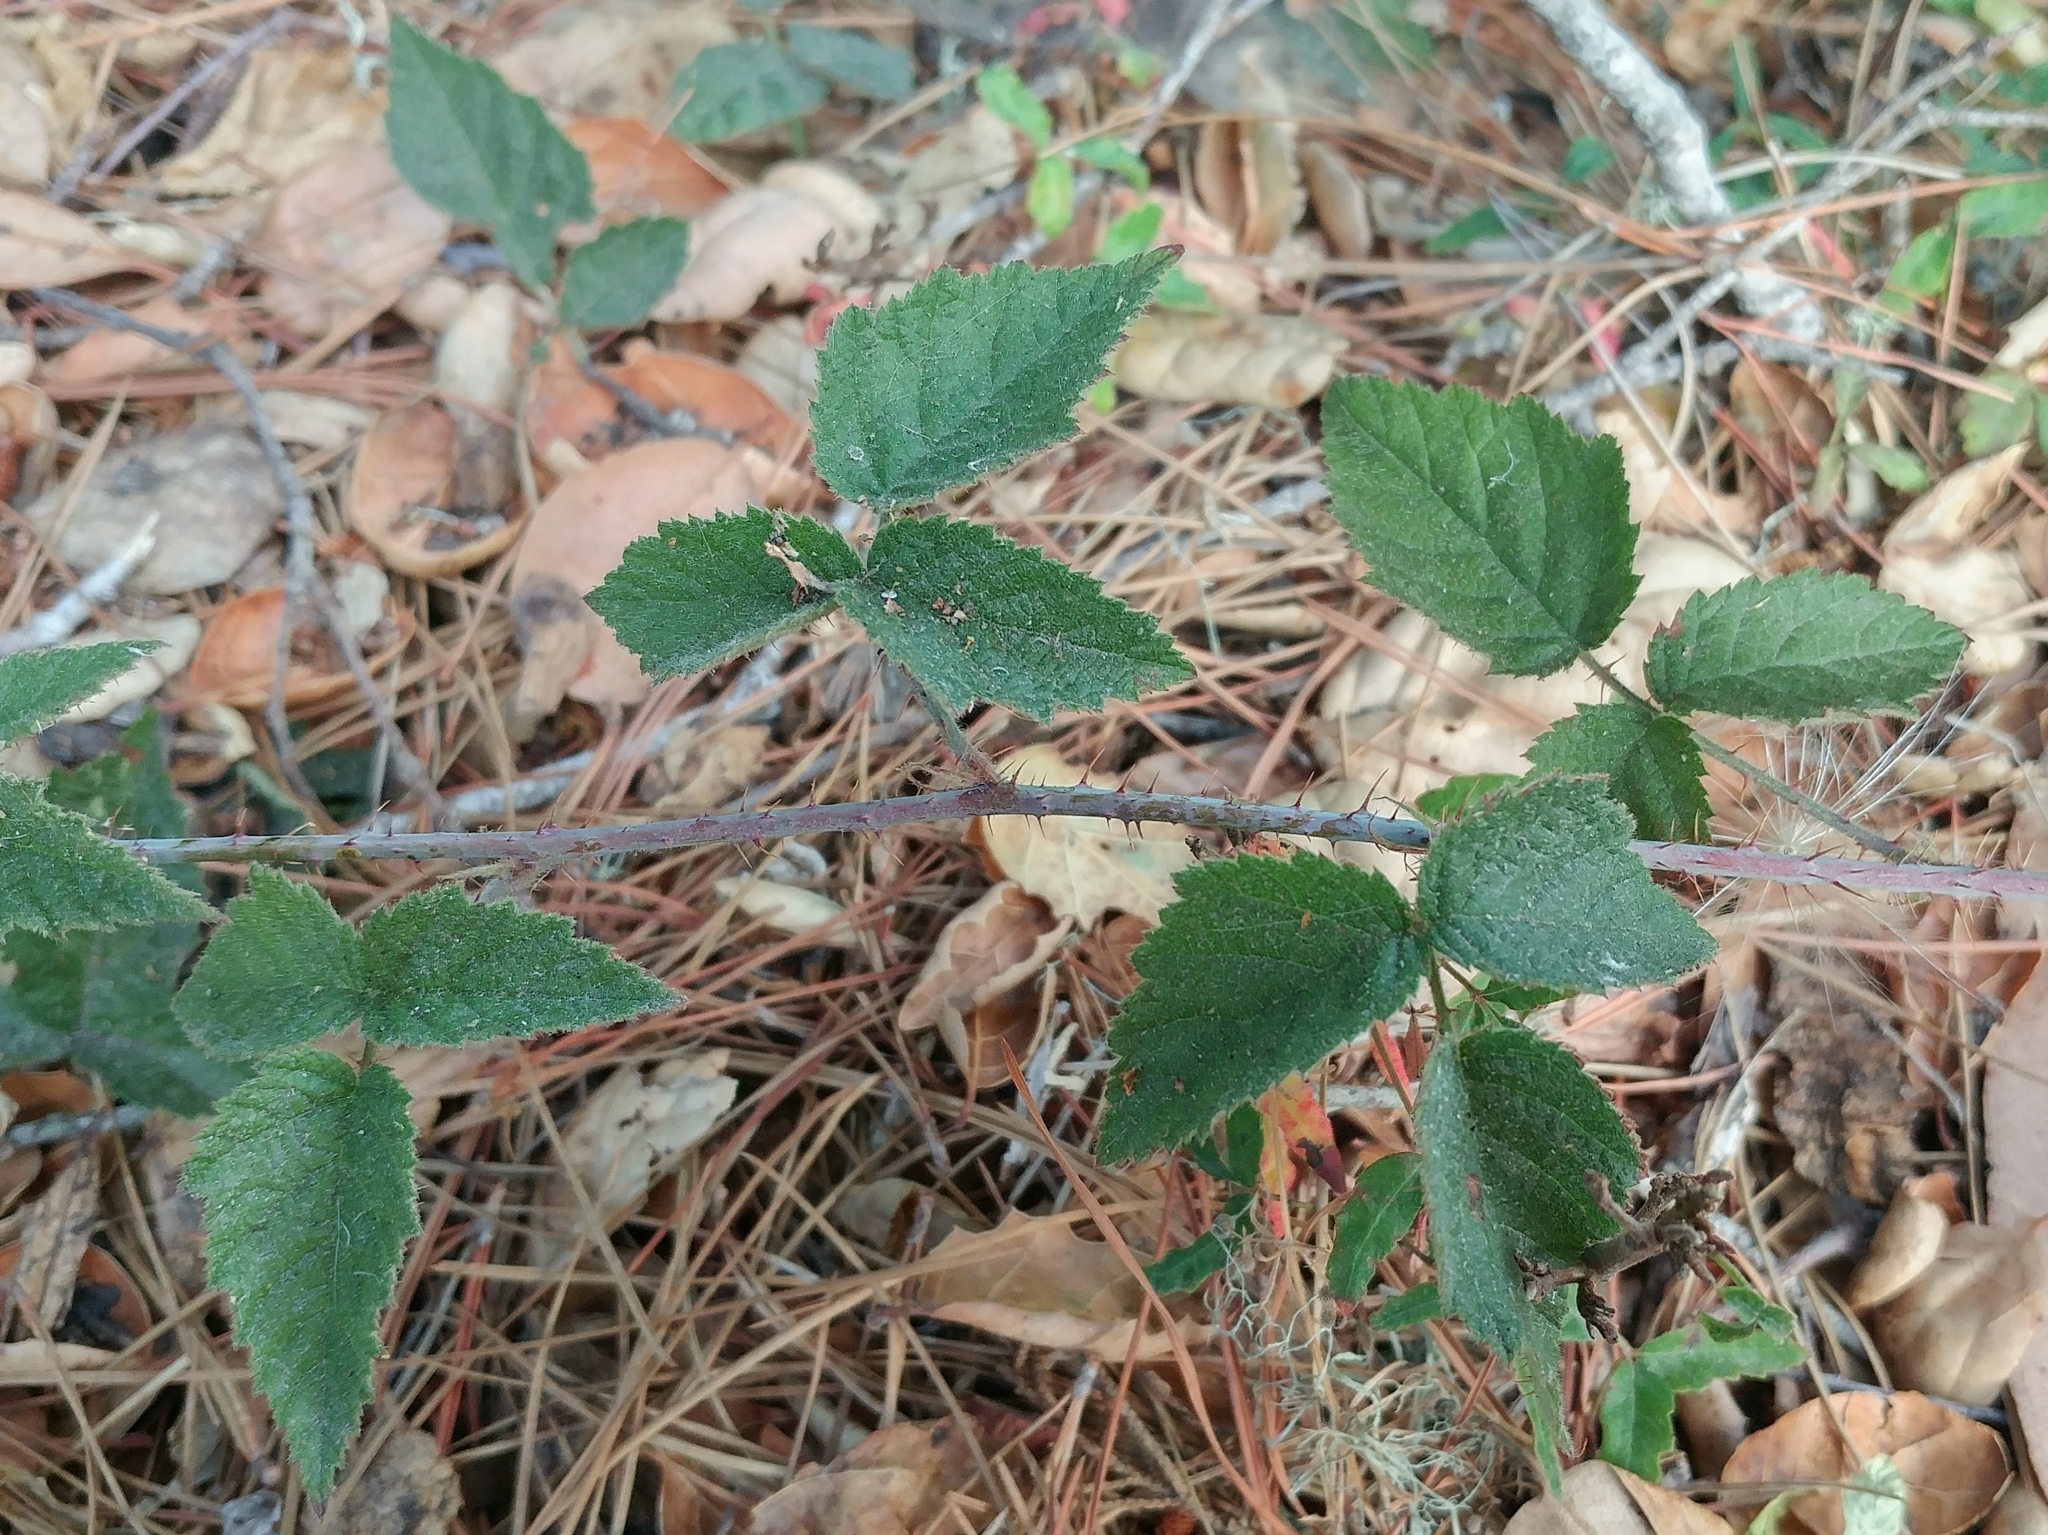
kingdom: Plantae
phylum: Tracheophyta
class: Magnoliopsida
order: Rosales
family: Rosaceae
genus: Rubus
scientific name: Rubus ursinus
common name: Pacific blackberry
